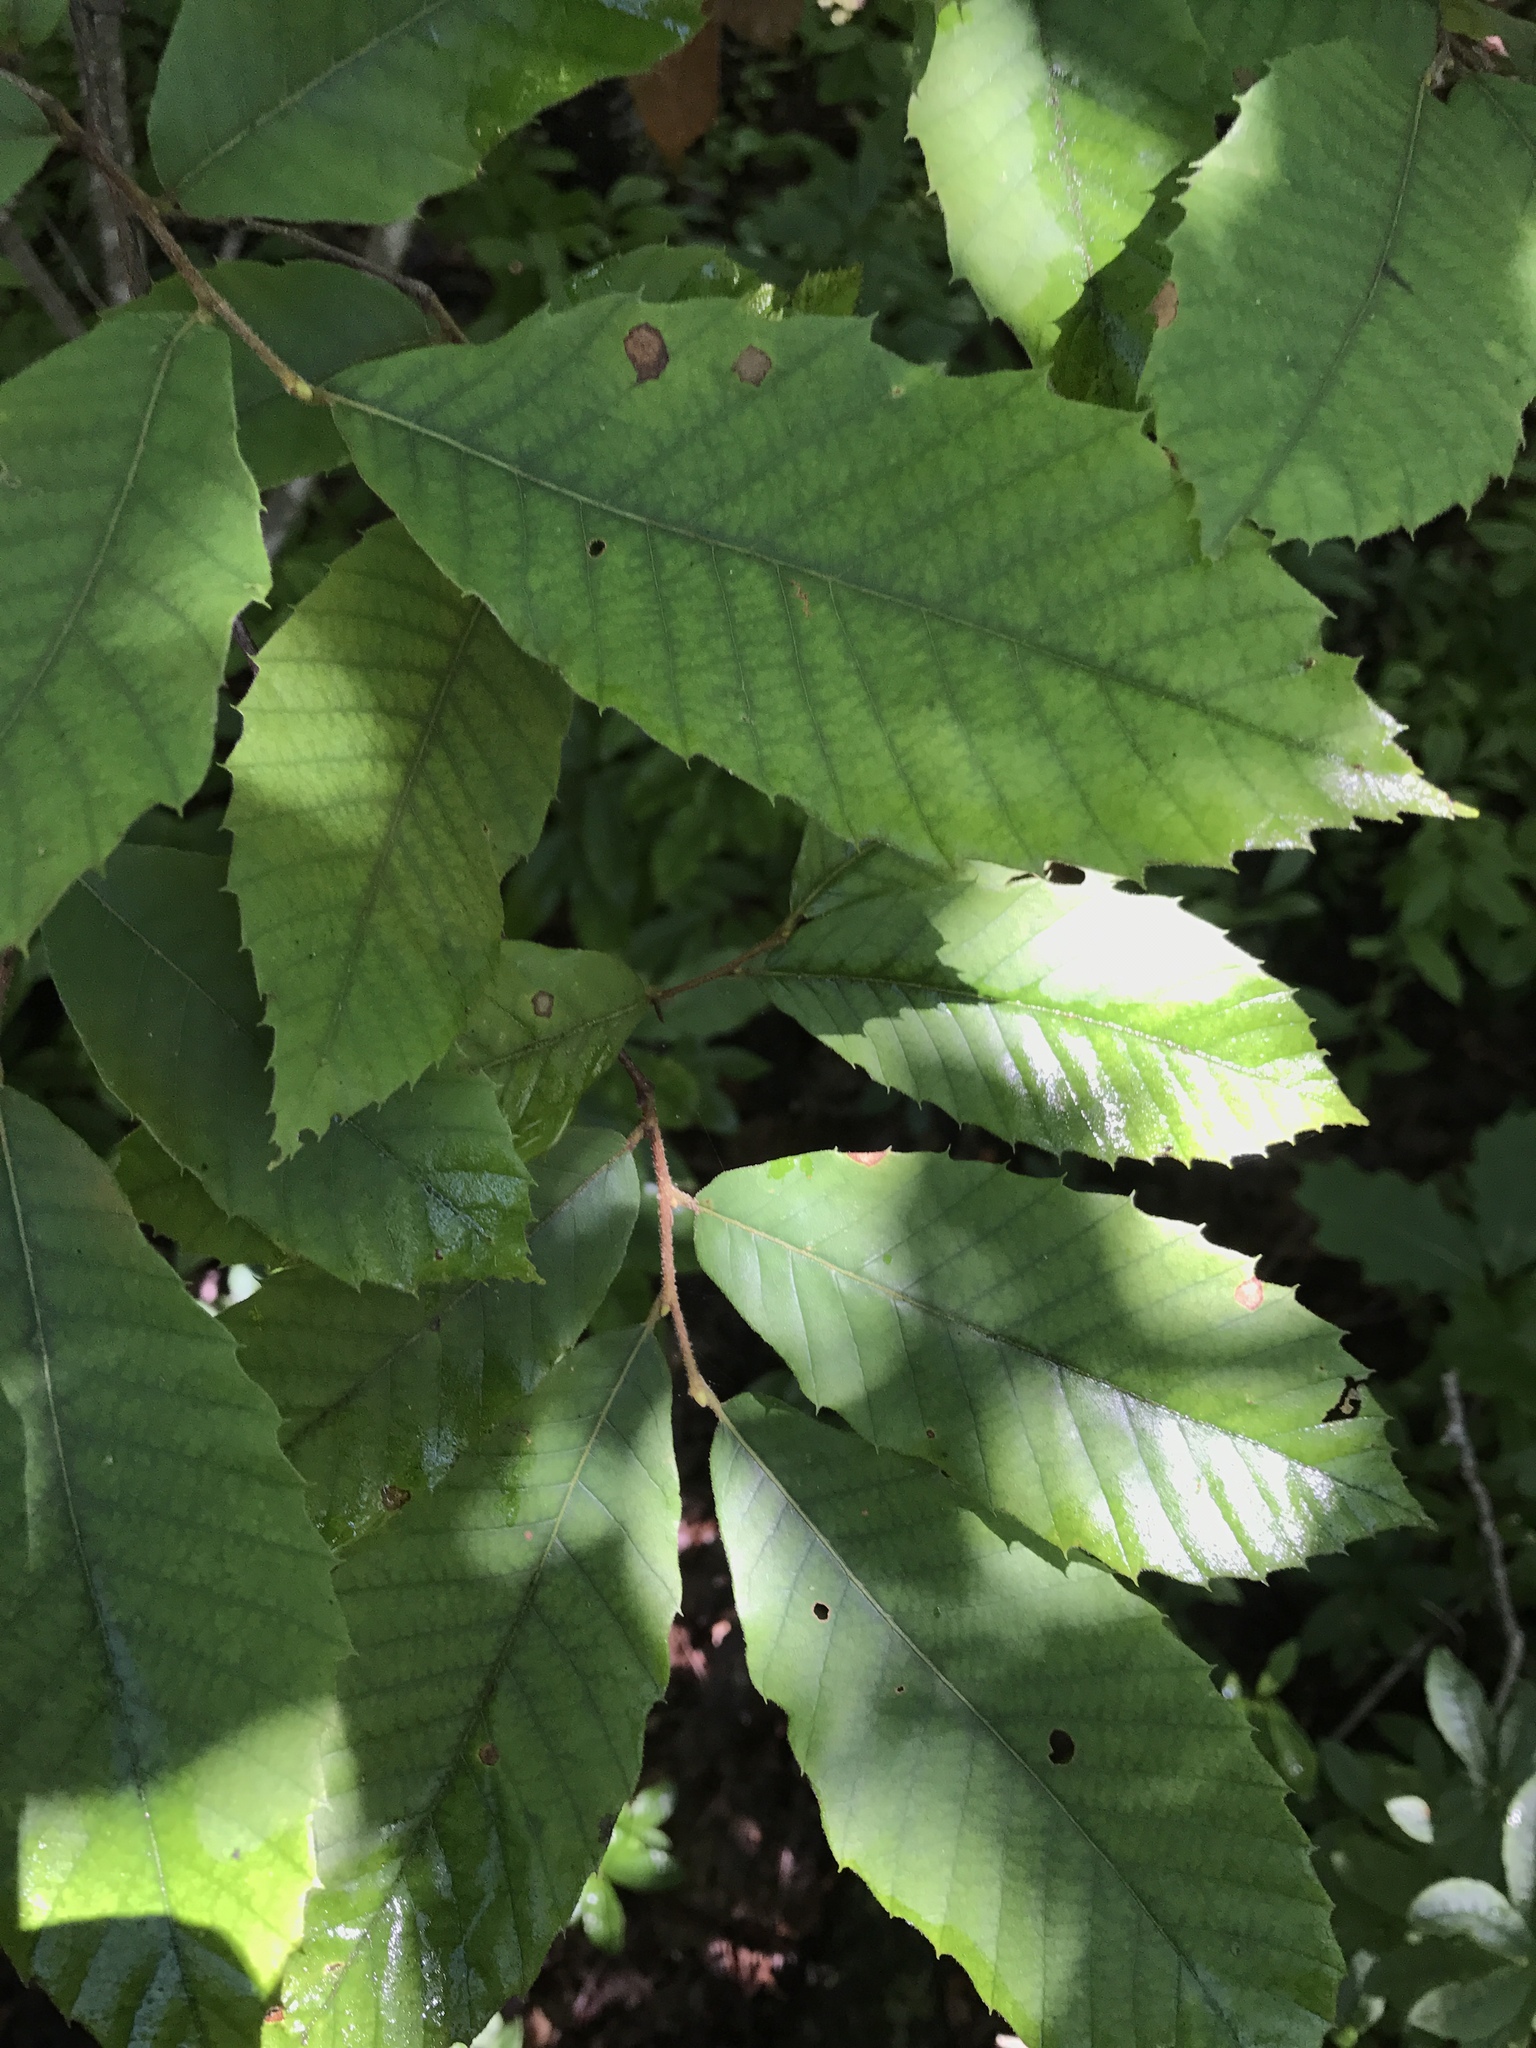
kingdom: Plantae
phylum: Tracheophyta
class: Magnoliopsida
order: Fagales
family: Fagaceae
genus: Castanea
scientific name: Castanea pumila
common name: Chinkapin
